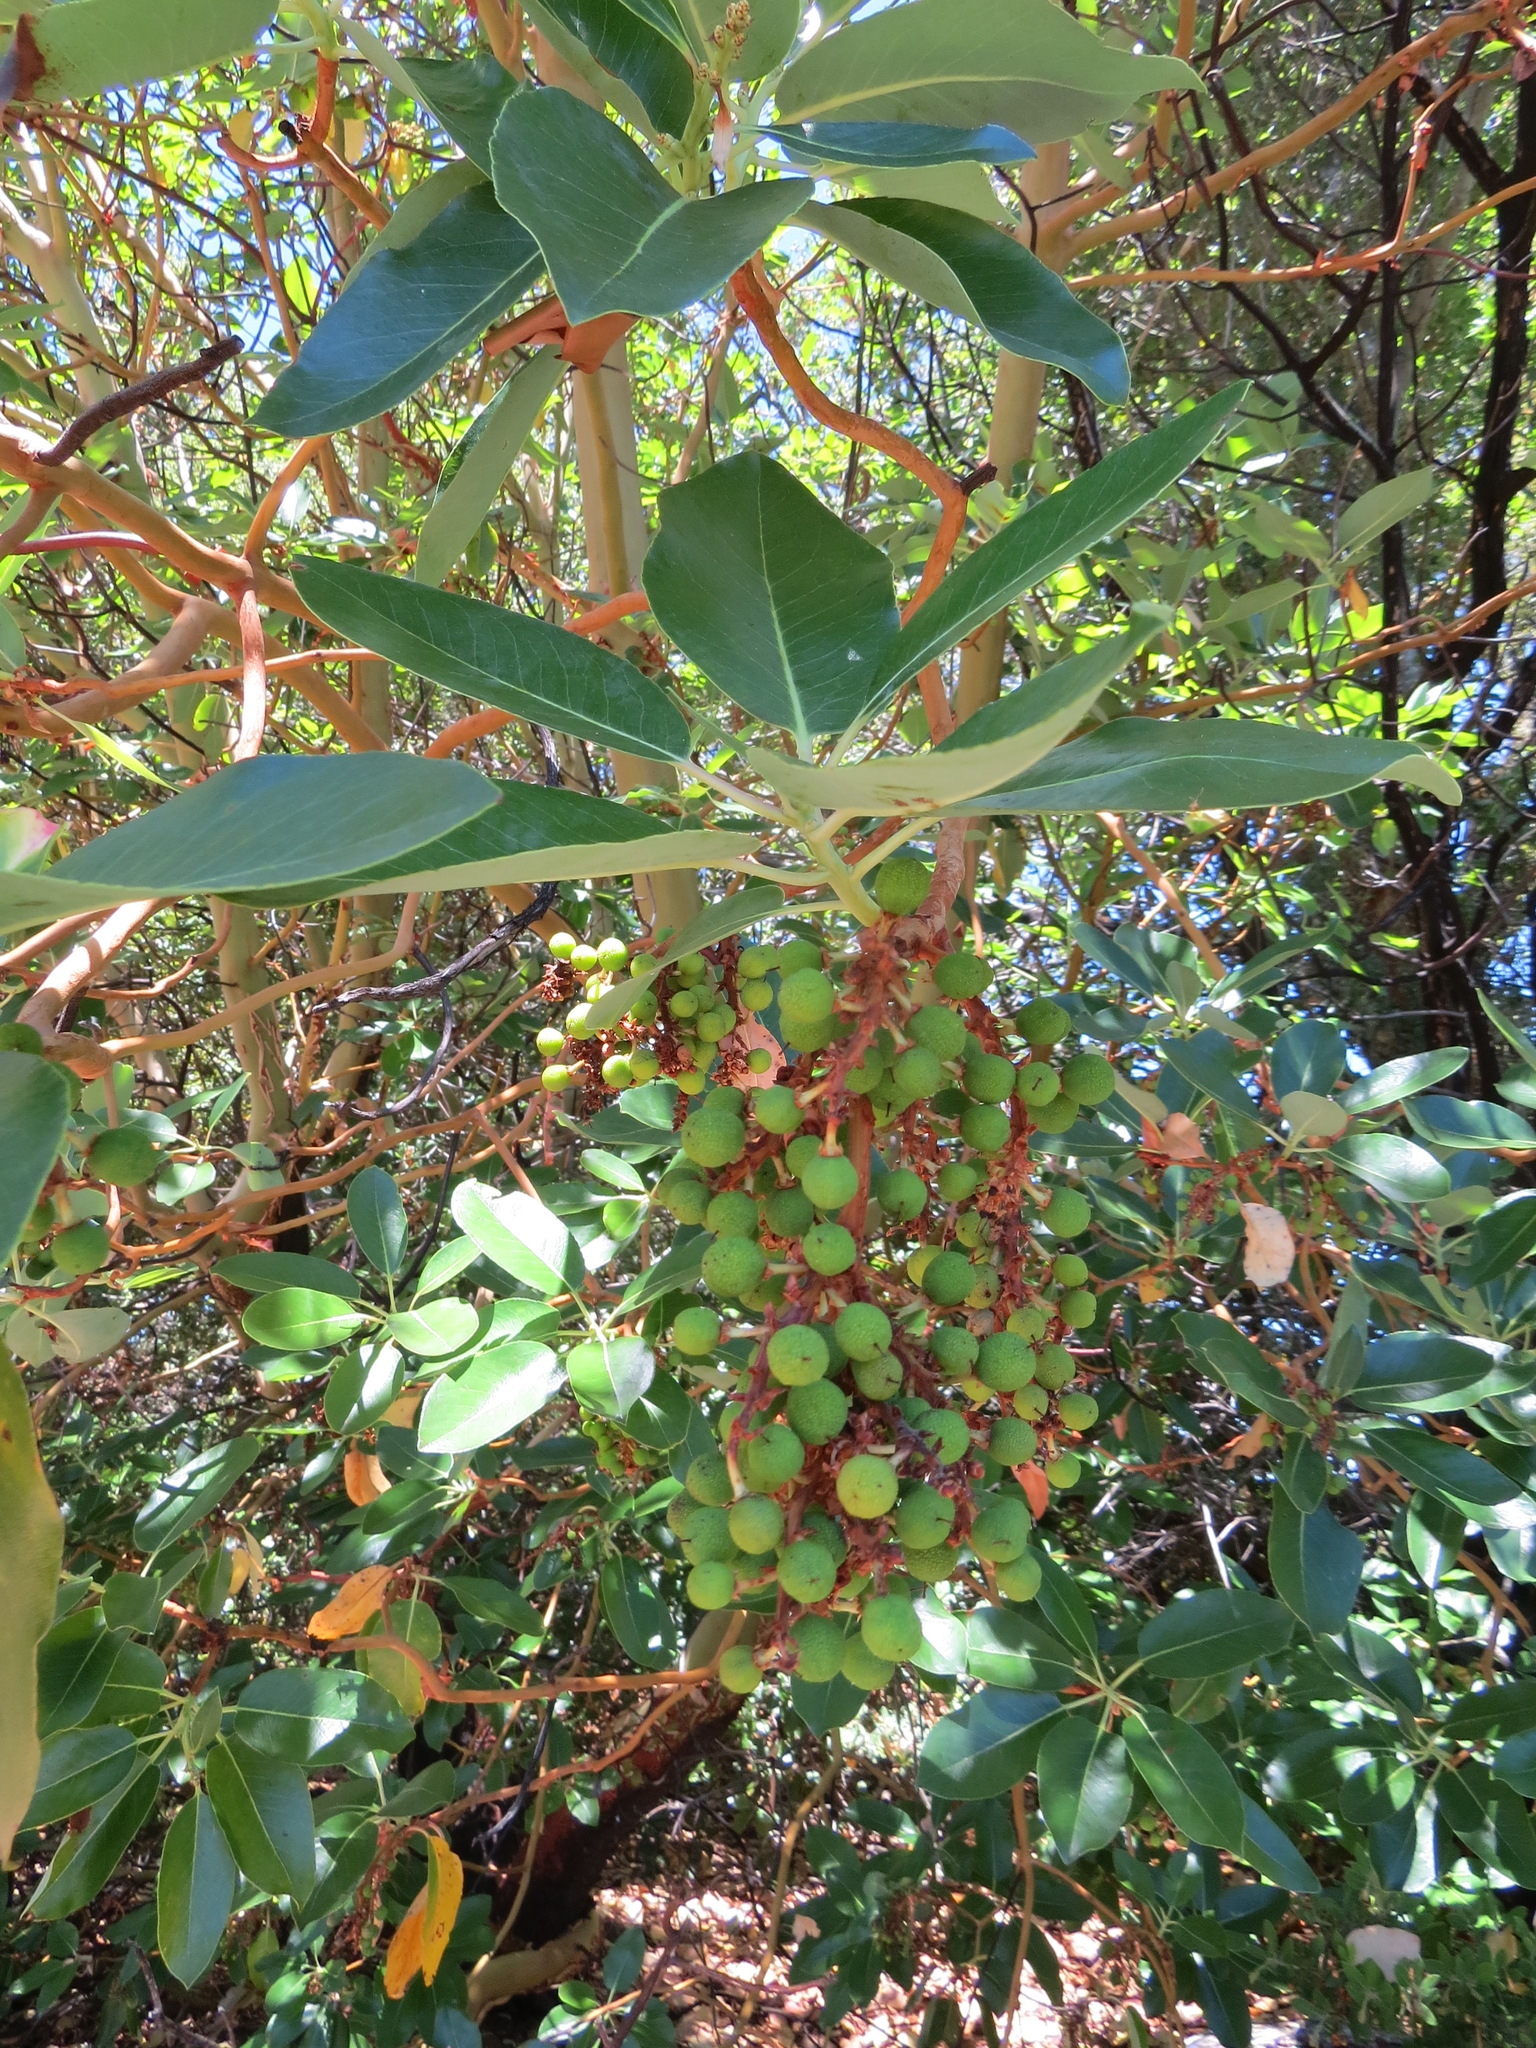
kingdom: Plantae
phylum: Tracheophyta
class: Magnoliopsida
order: Ericales
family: Ericaceae
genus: Arbutus
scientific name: Arbutus menziesii
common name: Pacific madrone
